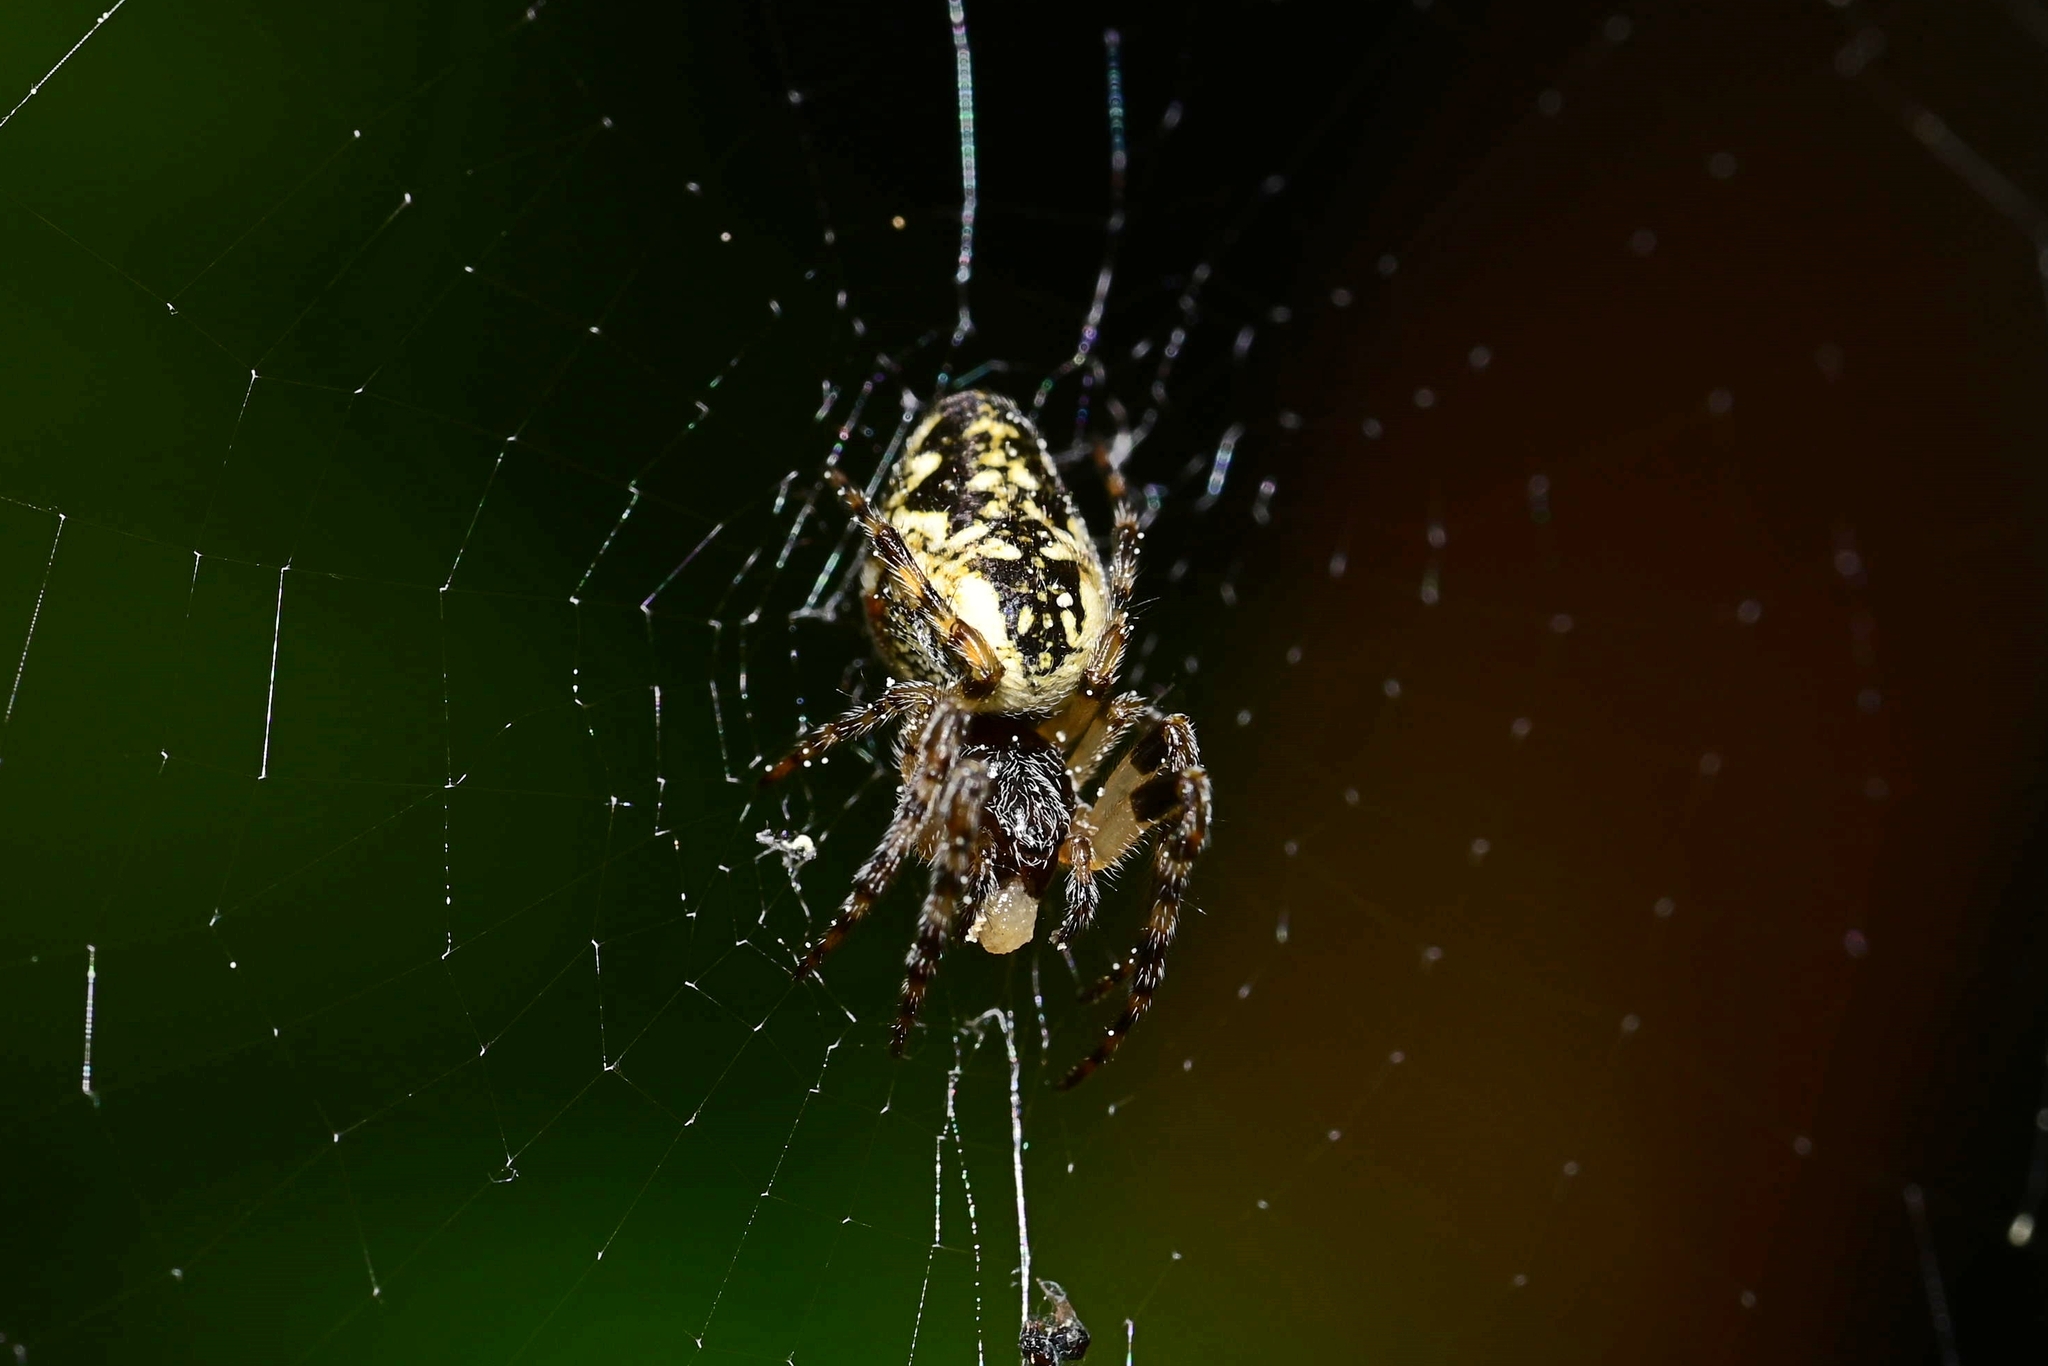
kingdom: Animalia
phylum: Arthropoda
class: Arachnida
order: Araneae
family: Araneidae
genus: Cyclosa
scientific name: Cyclosa conica
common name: Conical trashline orbweaver
